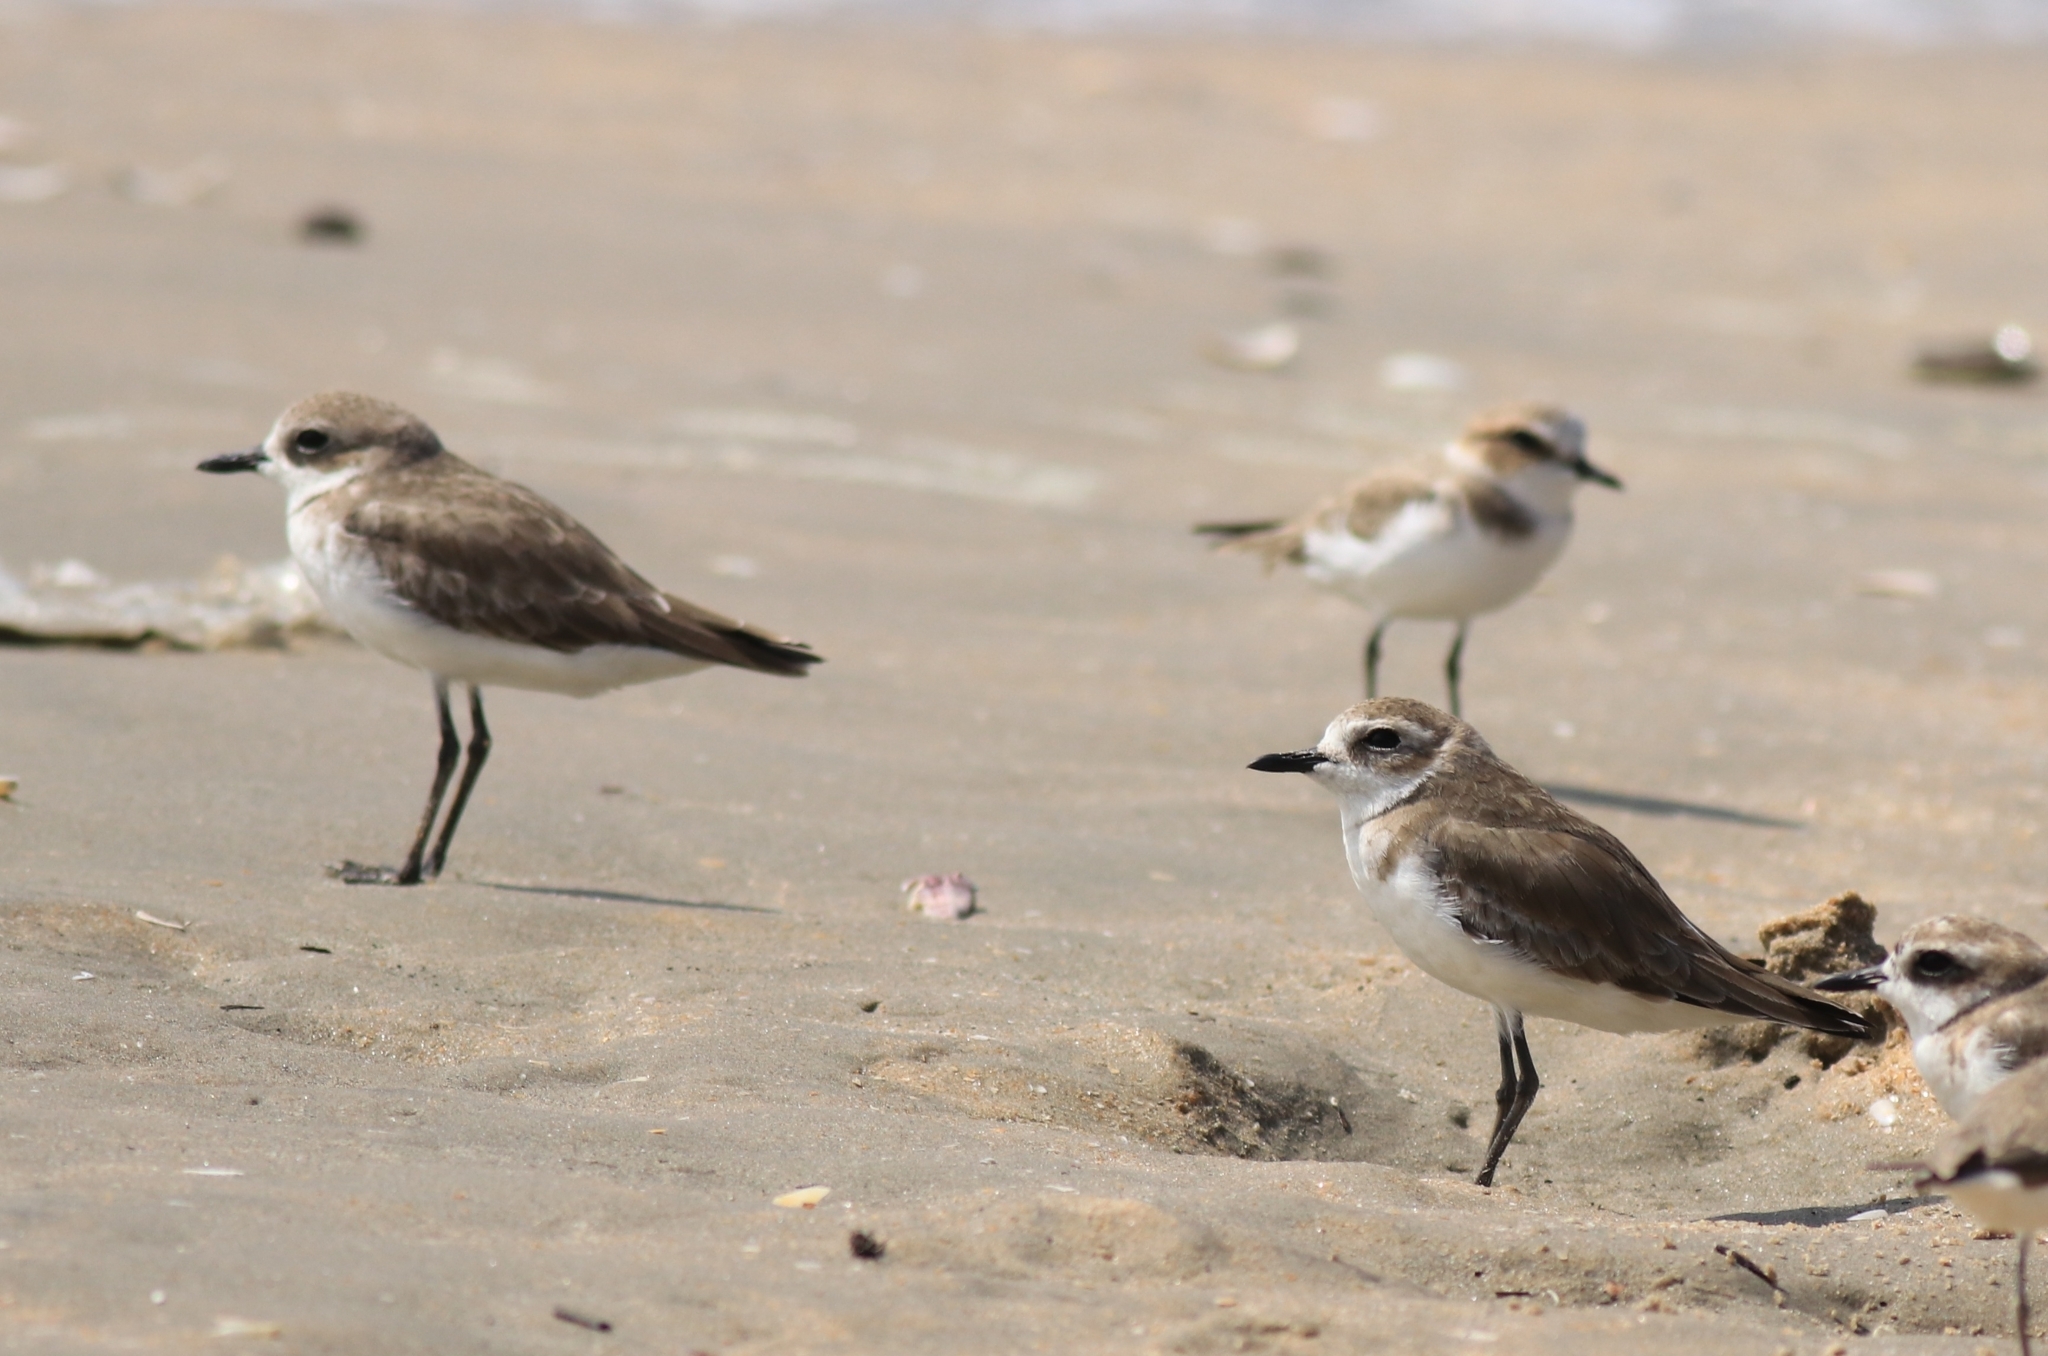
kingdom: Animalia
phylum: Chordata
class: Aves
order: Charadriiformes
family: Charadriidae
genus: Anarhynchus
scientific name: Anarhynchus
